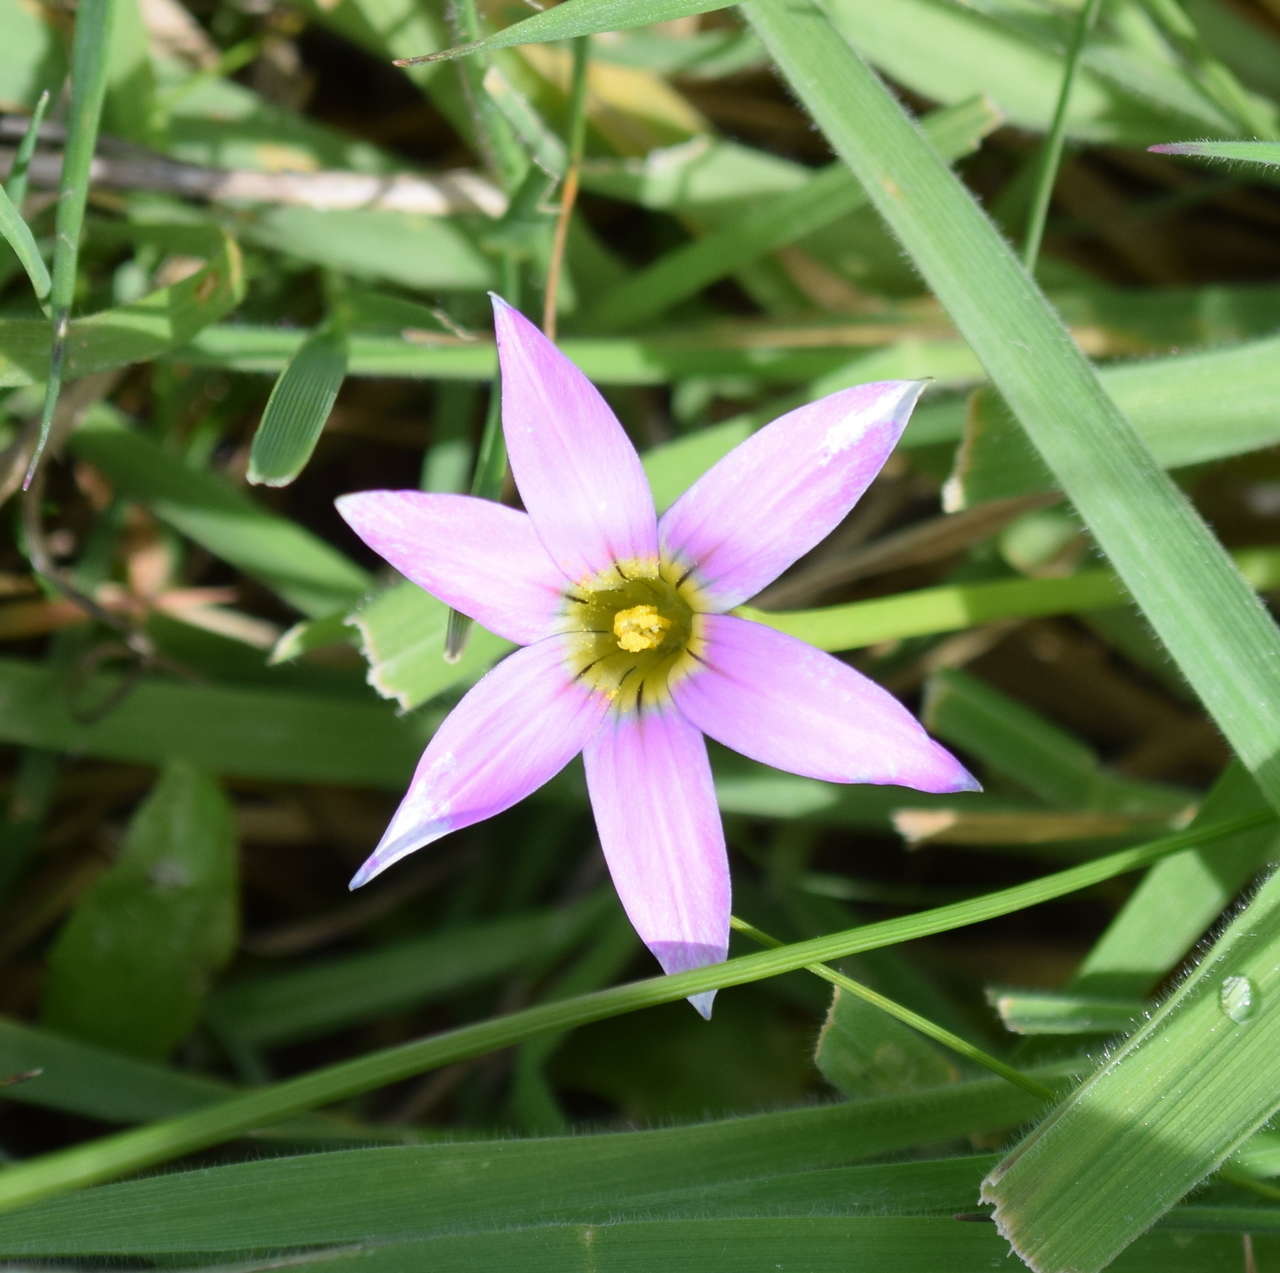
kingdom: Plantae
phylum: Tracheophyta
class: Liliopsida
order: Asparagales
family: Iridaceae
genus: Romulea
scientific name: Romulea rosea
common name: Oniongrass
